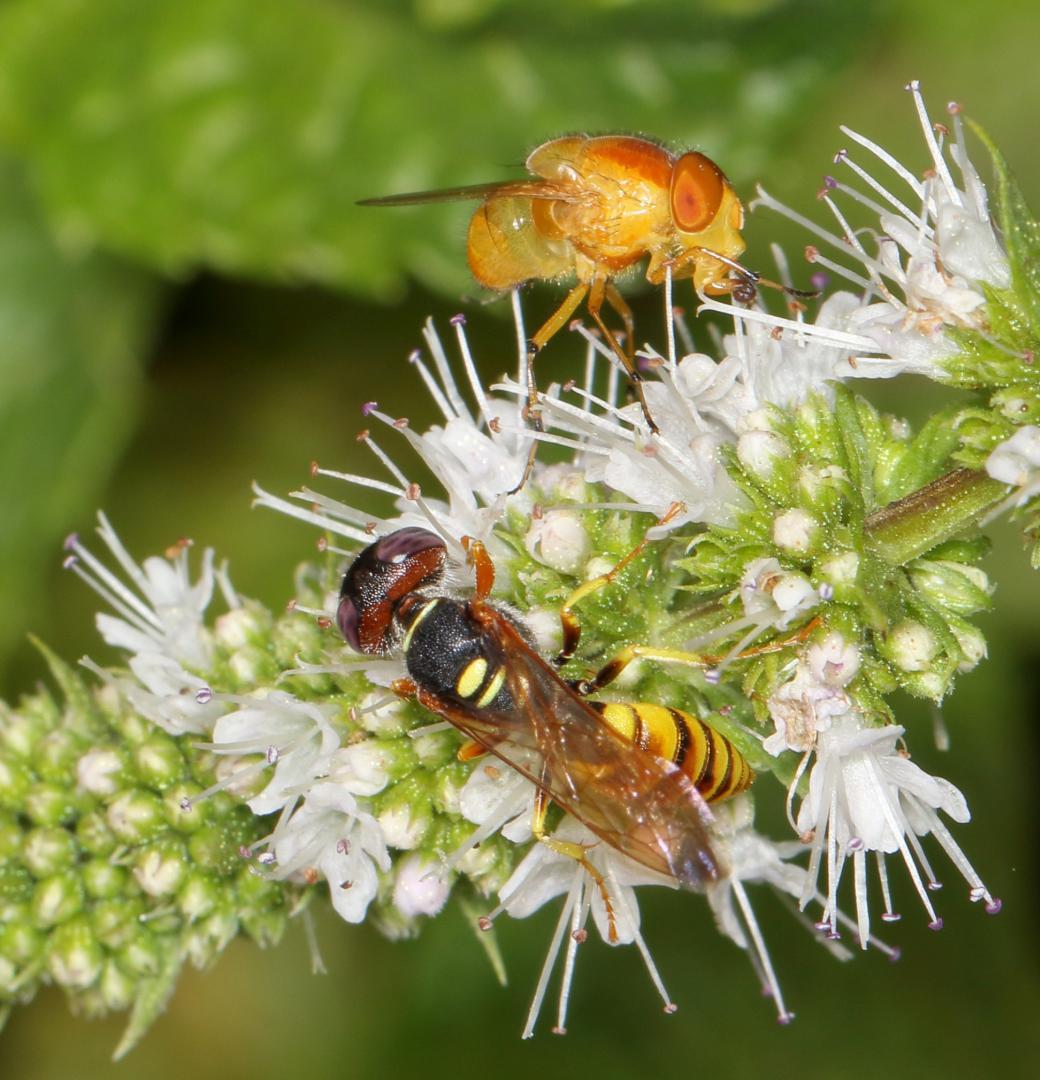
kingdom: Animalia
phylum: Arthropoda
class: Insecta
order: Hymenoptera
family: Crabronidae
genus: Philanthus
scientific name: Philanthus triangulum
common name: Bee wolf
